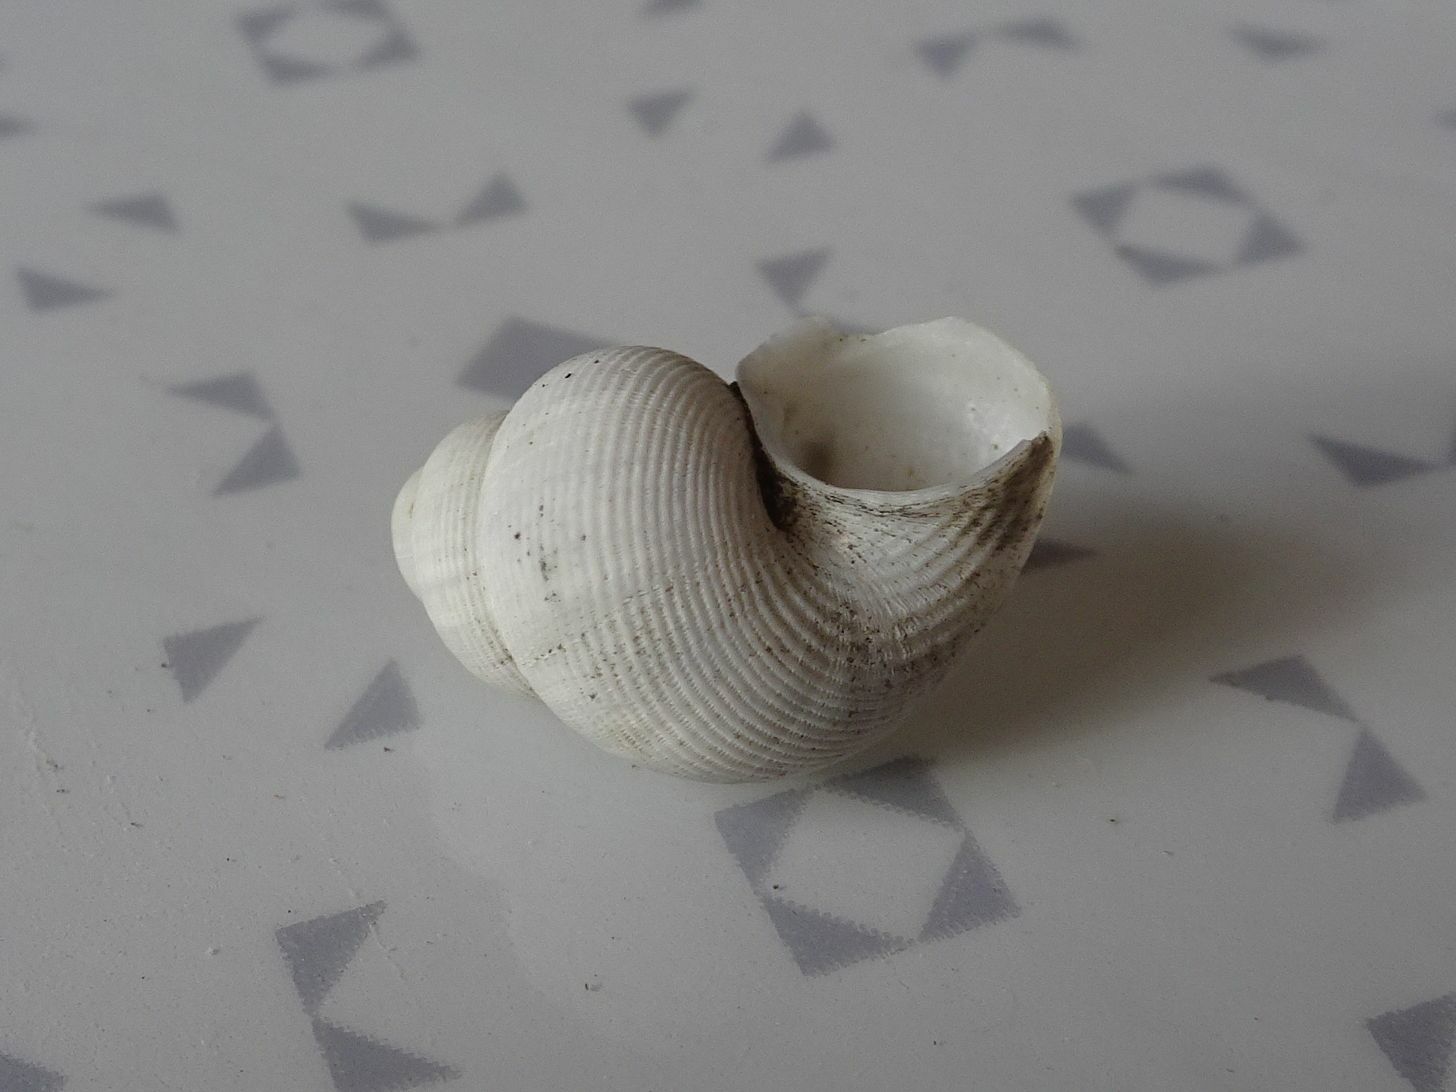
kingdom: Animalia
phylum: Mollusca
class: Gastropoda
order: Littorinimorpha
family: Pomatiidae
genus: Pomatias
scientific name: Pomatias elegans
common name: Red-mouthed snail
